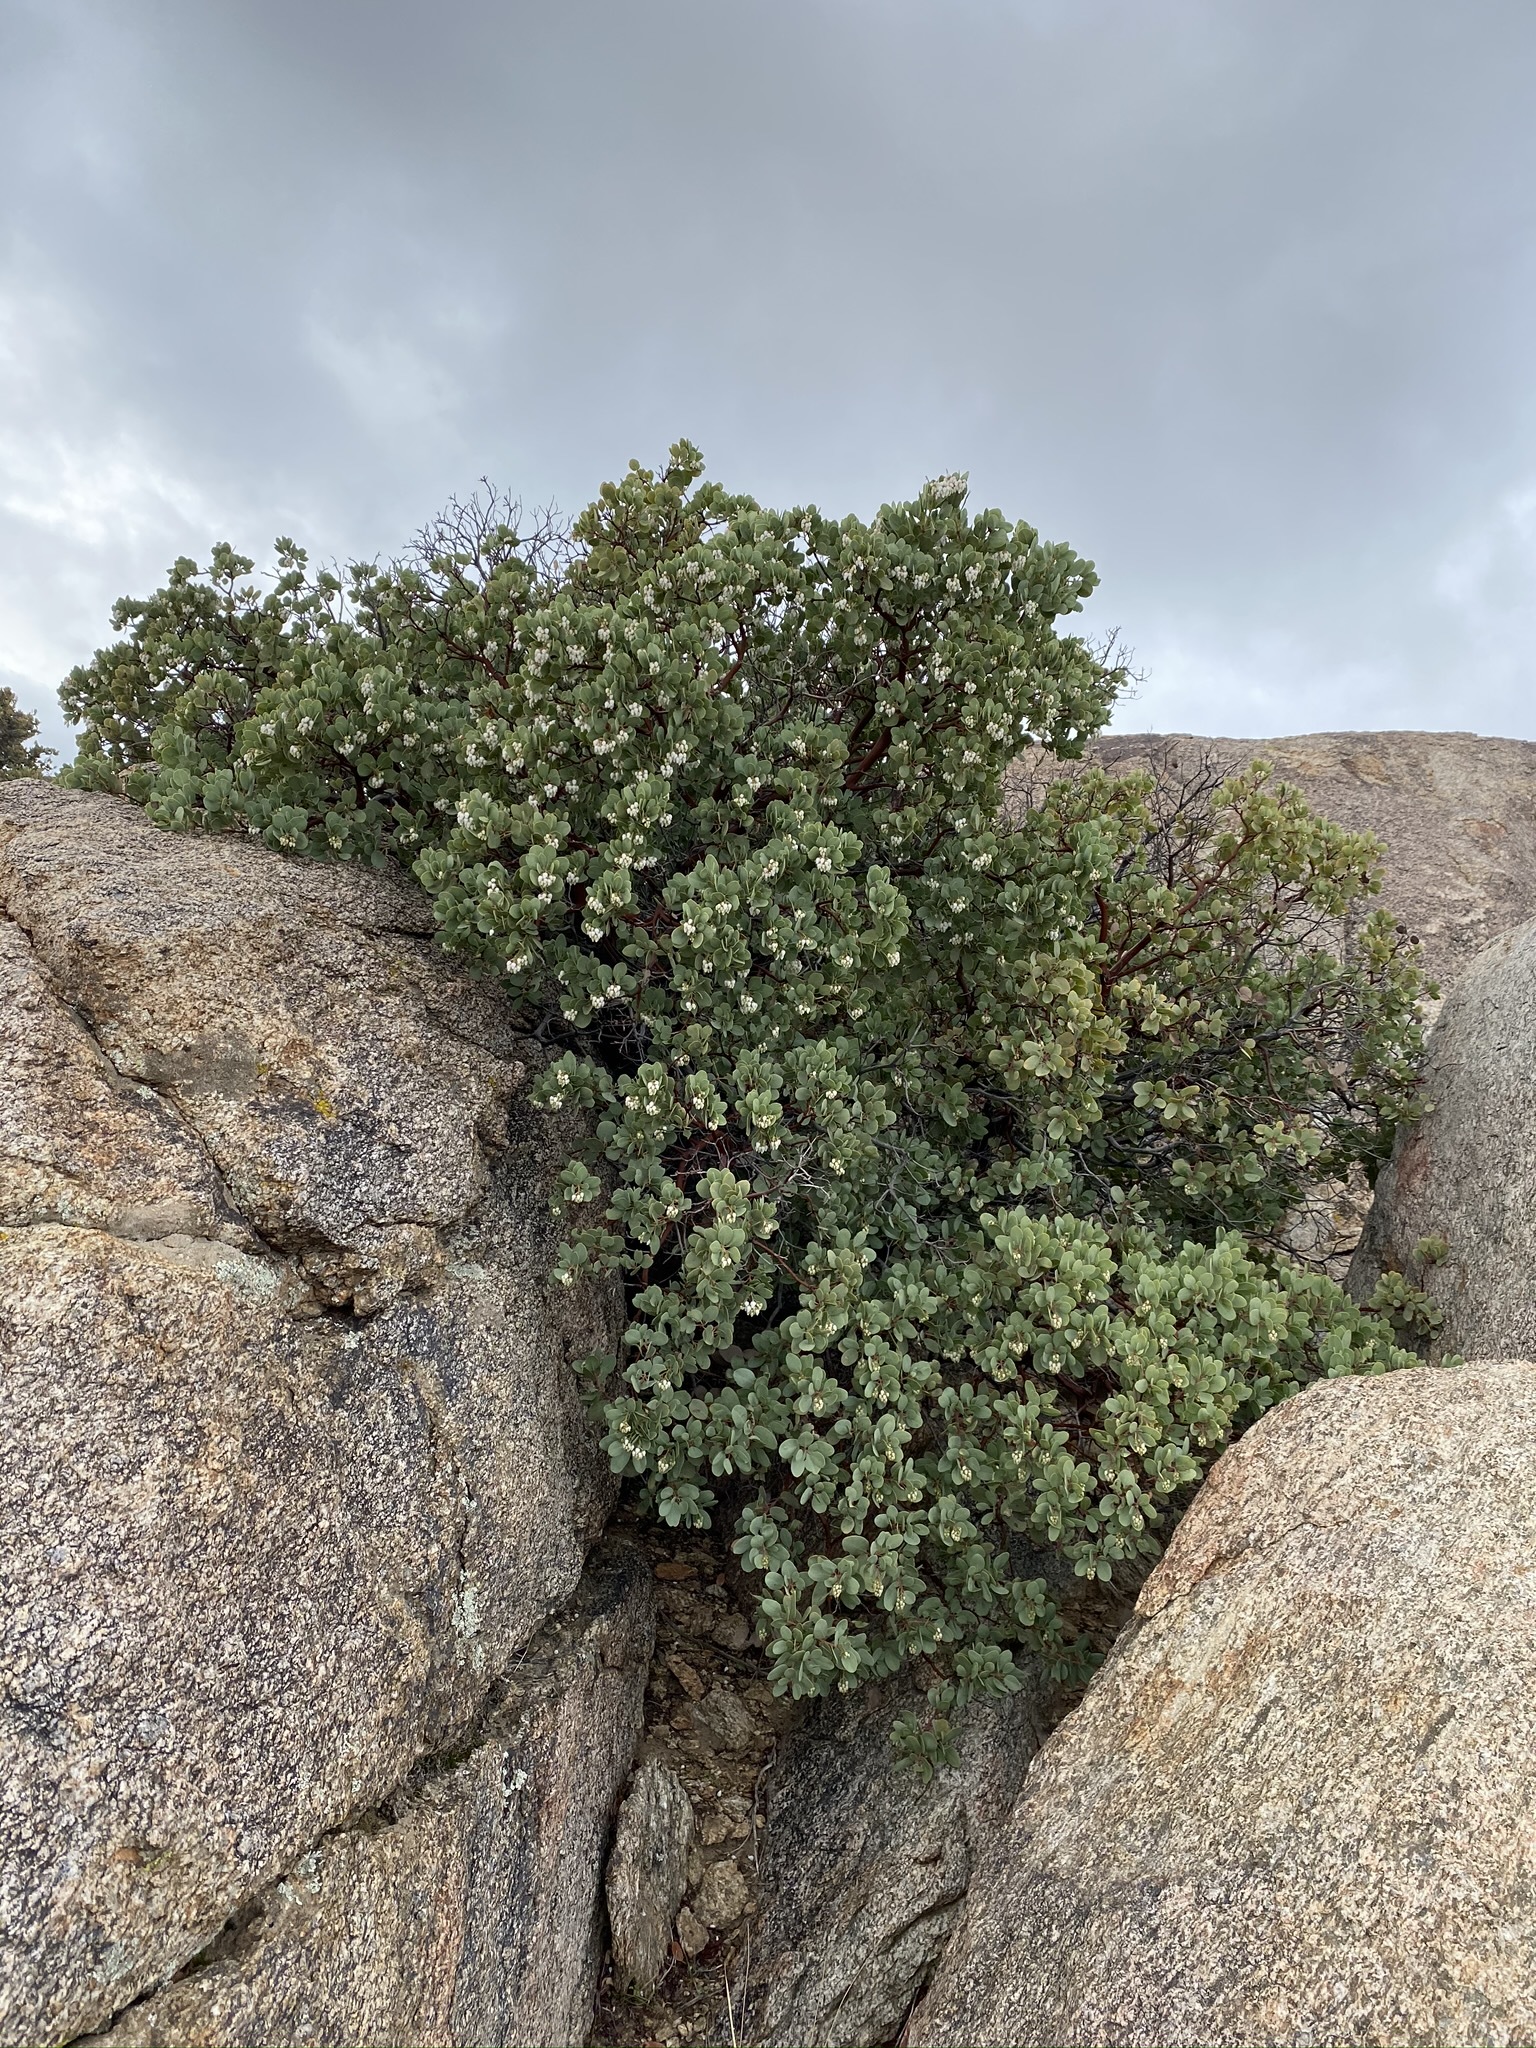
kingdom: Plantae
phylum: Tracheophyta
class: Magnoliopsida
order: Ericales
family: Ericaceae
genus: Arctostaphylos
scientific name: Arctostaphylos glauca
